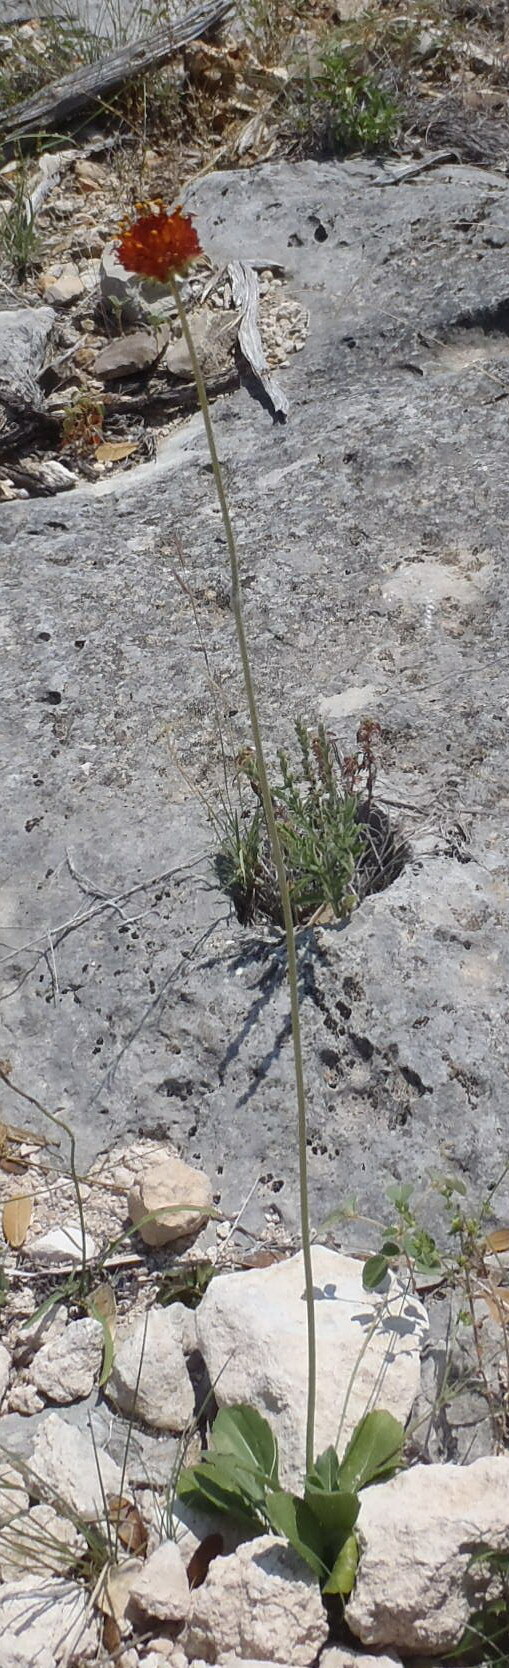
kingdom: Plantae
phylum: Tracheophyta
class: Magnoliopsida
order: Asterales
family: Asteraceae
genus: Gaillardia
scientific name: Gaillardia suavis
